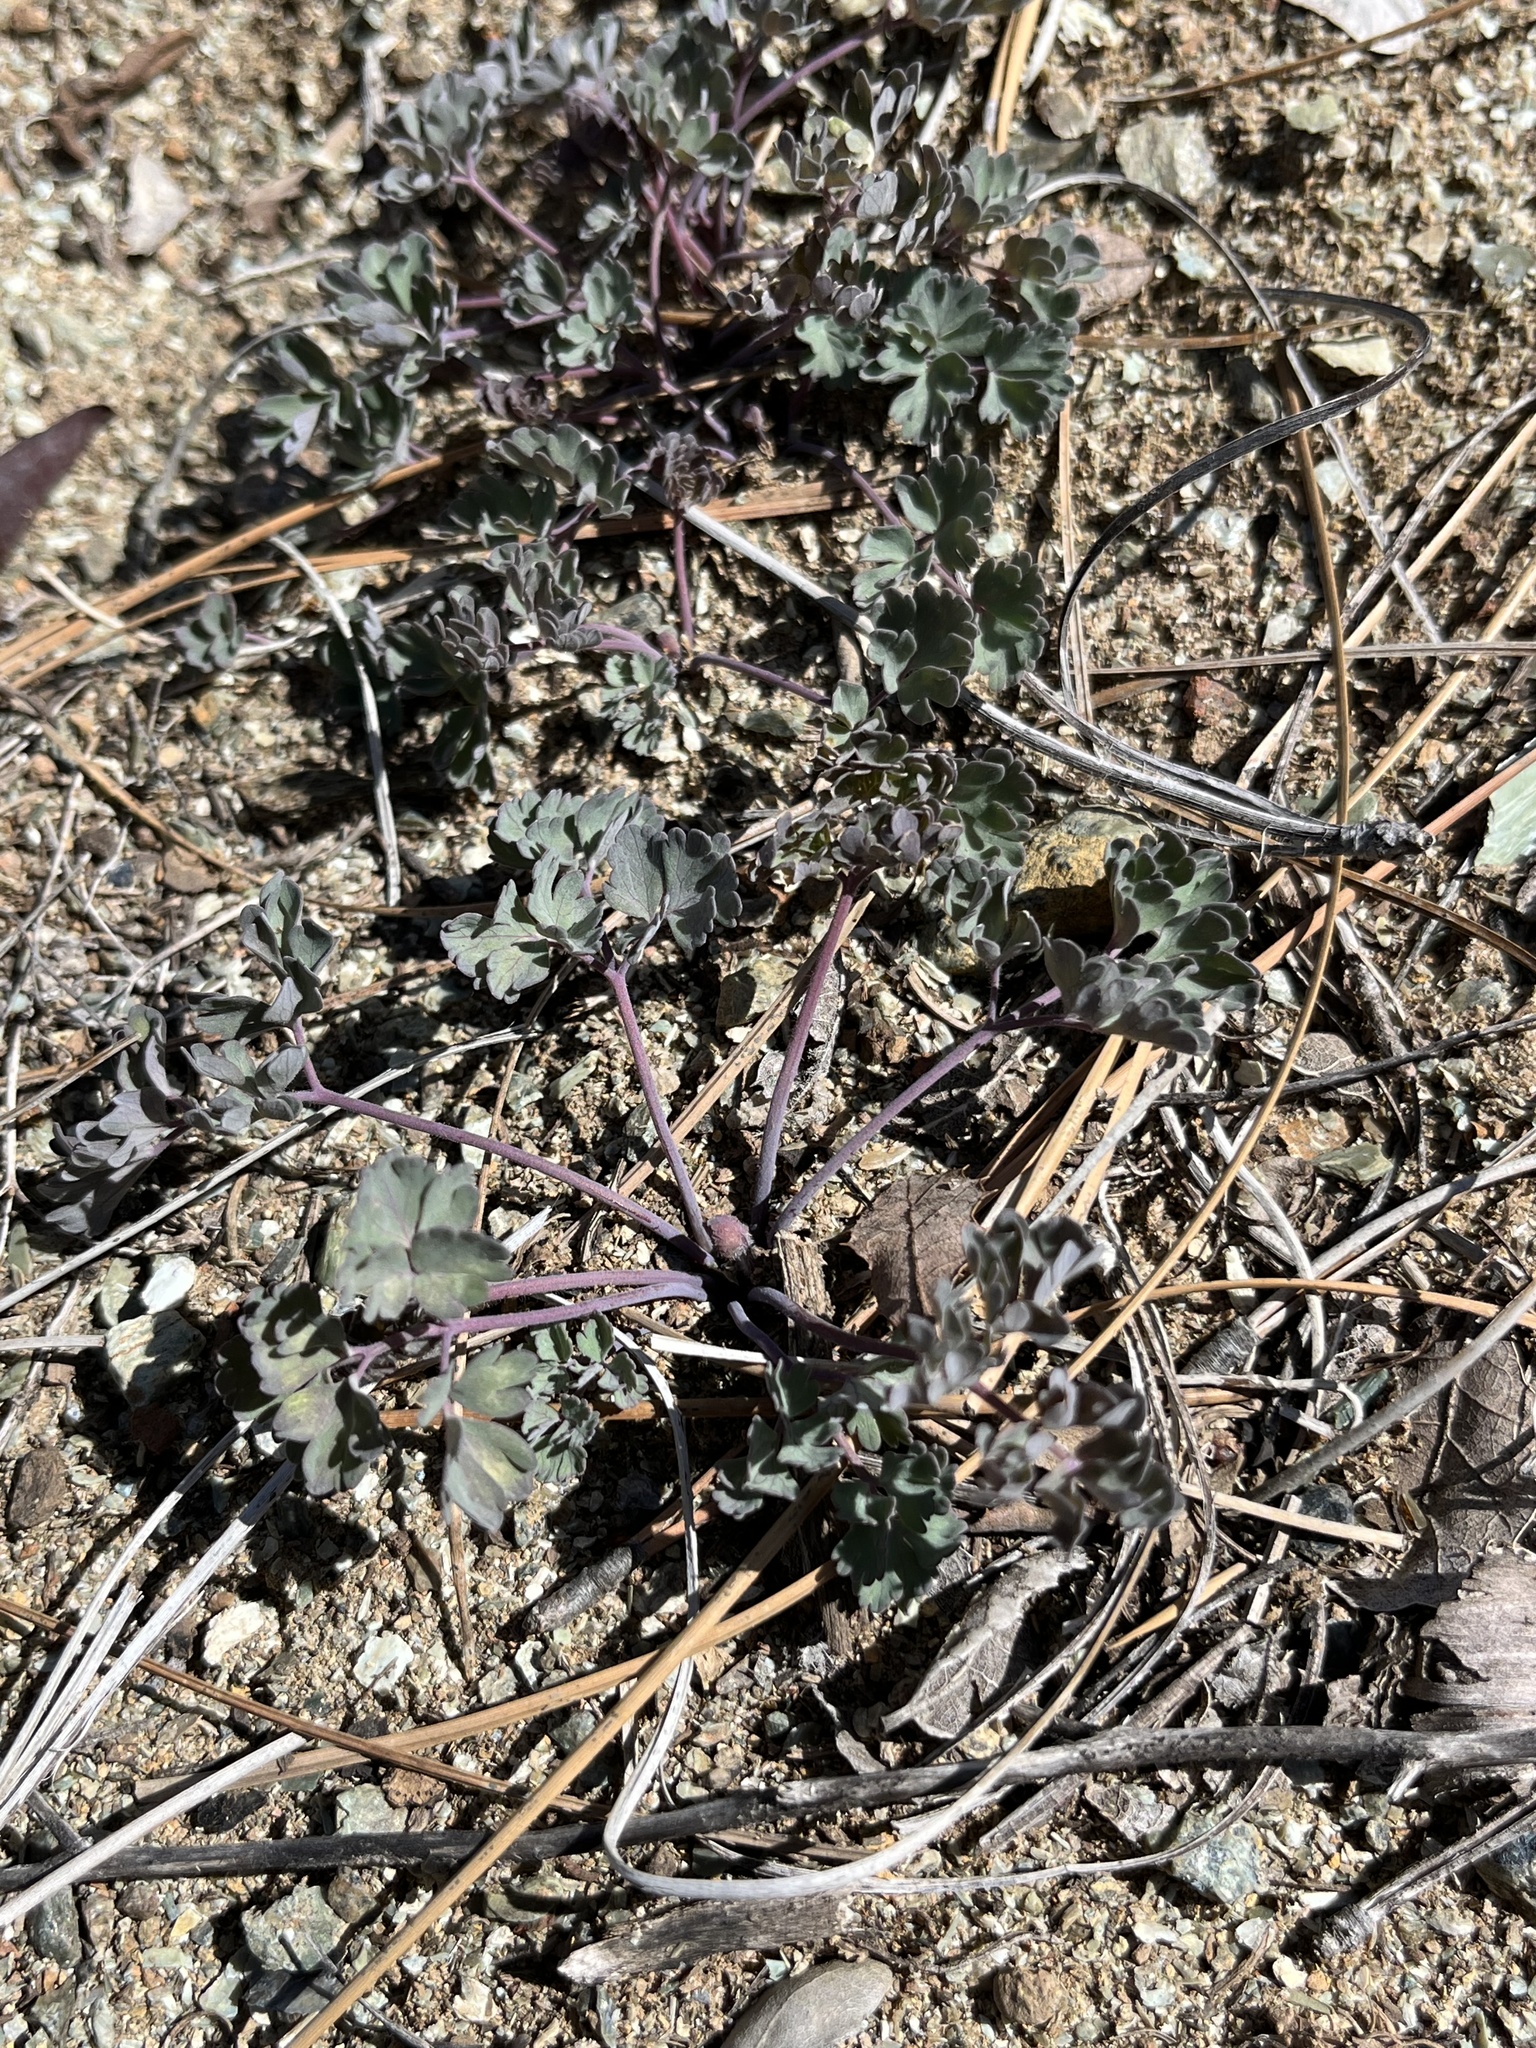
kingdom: Plantae
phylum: Tracheophyta
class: Magnoliopsida
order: Ranunculales
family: Ranunculaceae
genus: Aquilegia
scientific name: Aquilegia eximia
